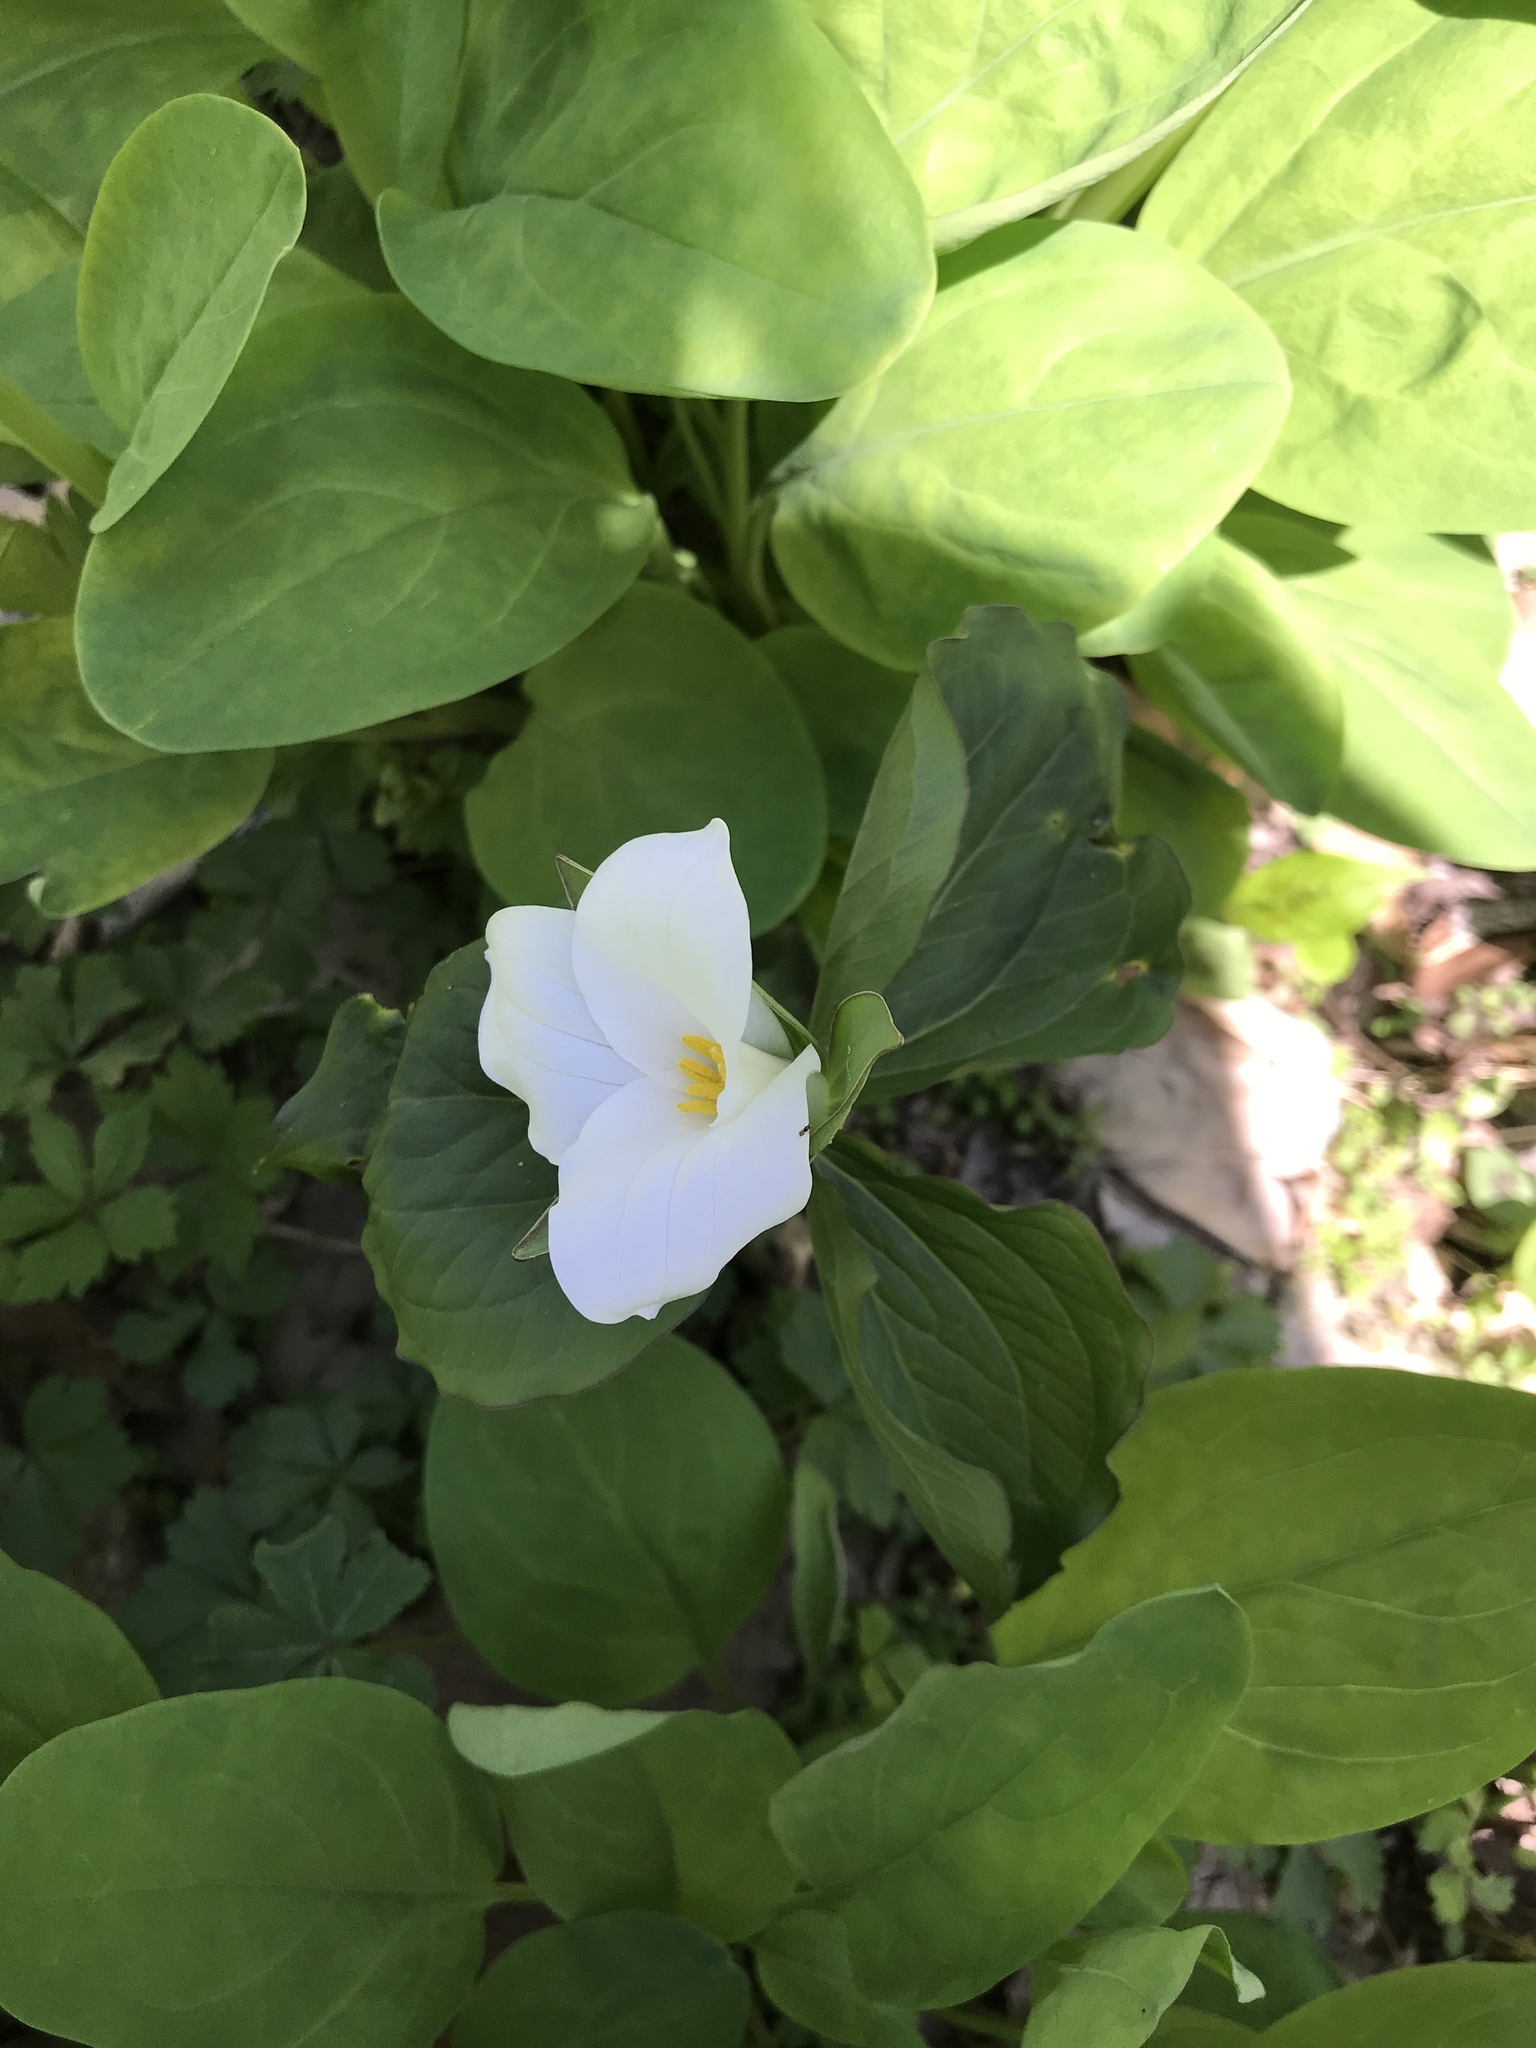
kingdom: Plantae
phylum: Tracheophyta
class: Liliopsida
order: Liliales
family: Melanthiaceae
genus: Trillium
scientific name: Trillium grandiflorum
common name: Great white trillium
